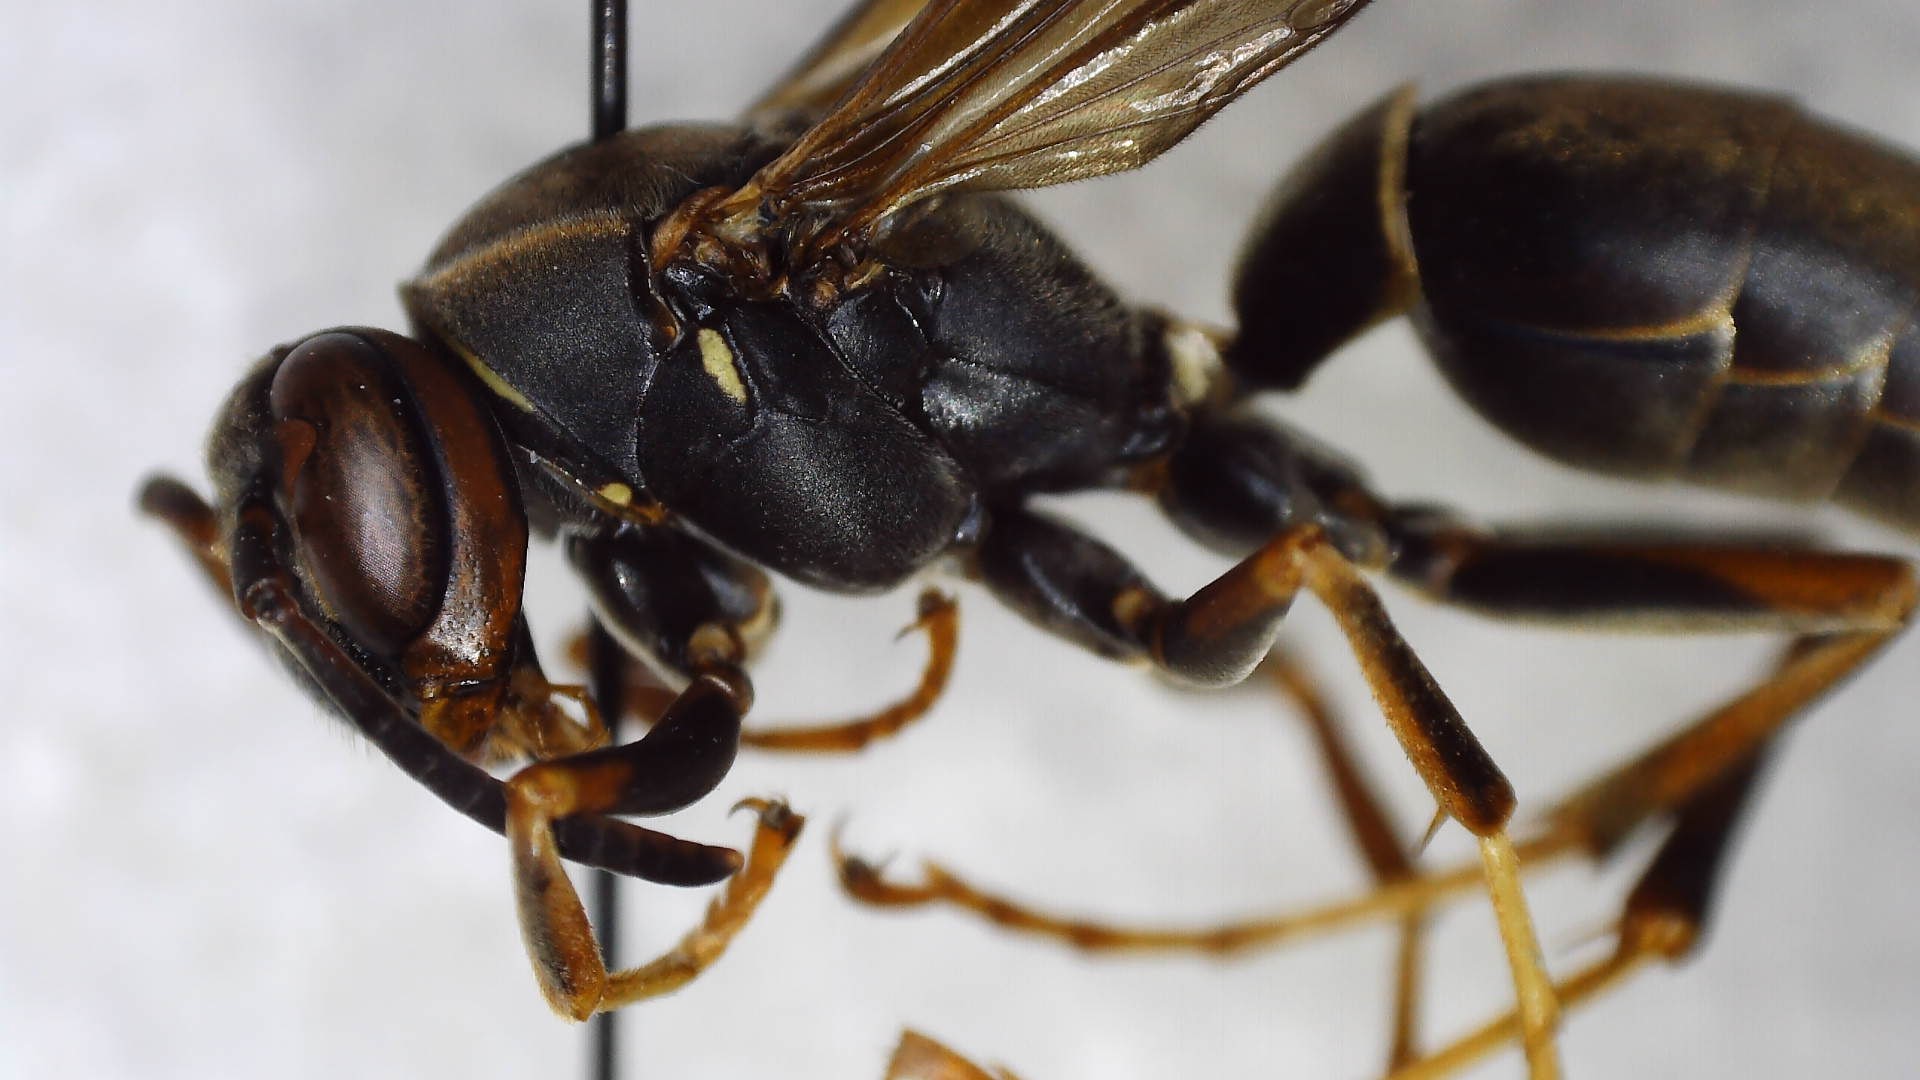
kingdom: Animalia
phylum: Arthropoda
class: Insecta
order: Hymenoptera
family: Eumenidae
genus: Polistes
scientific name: Polistes fuscatus
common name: Dark paper wasp
